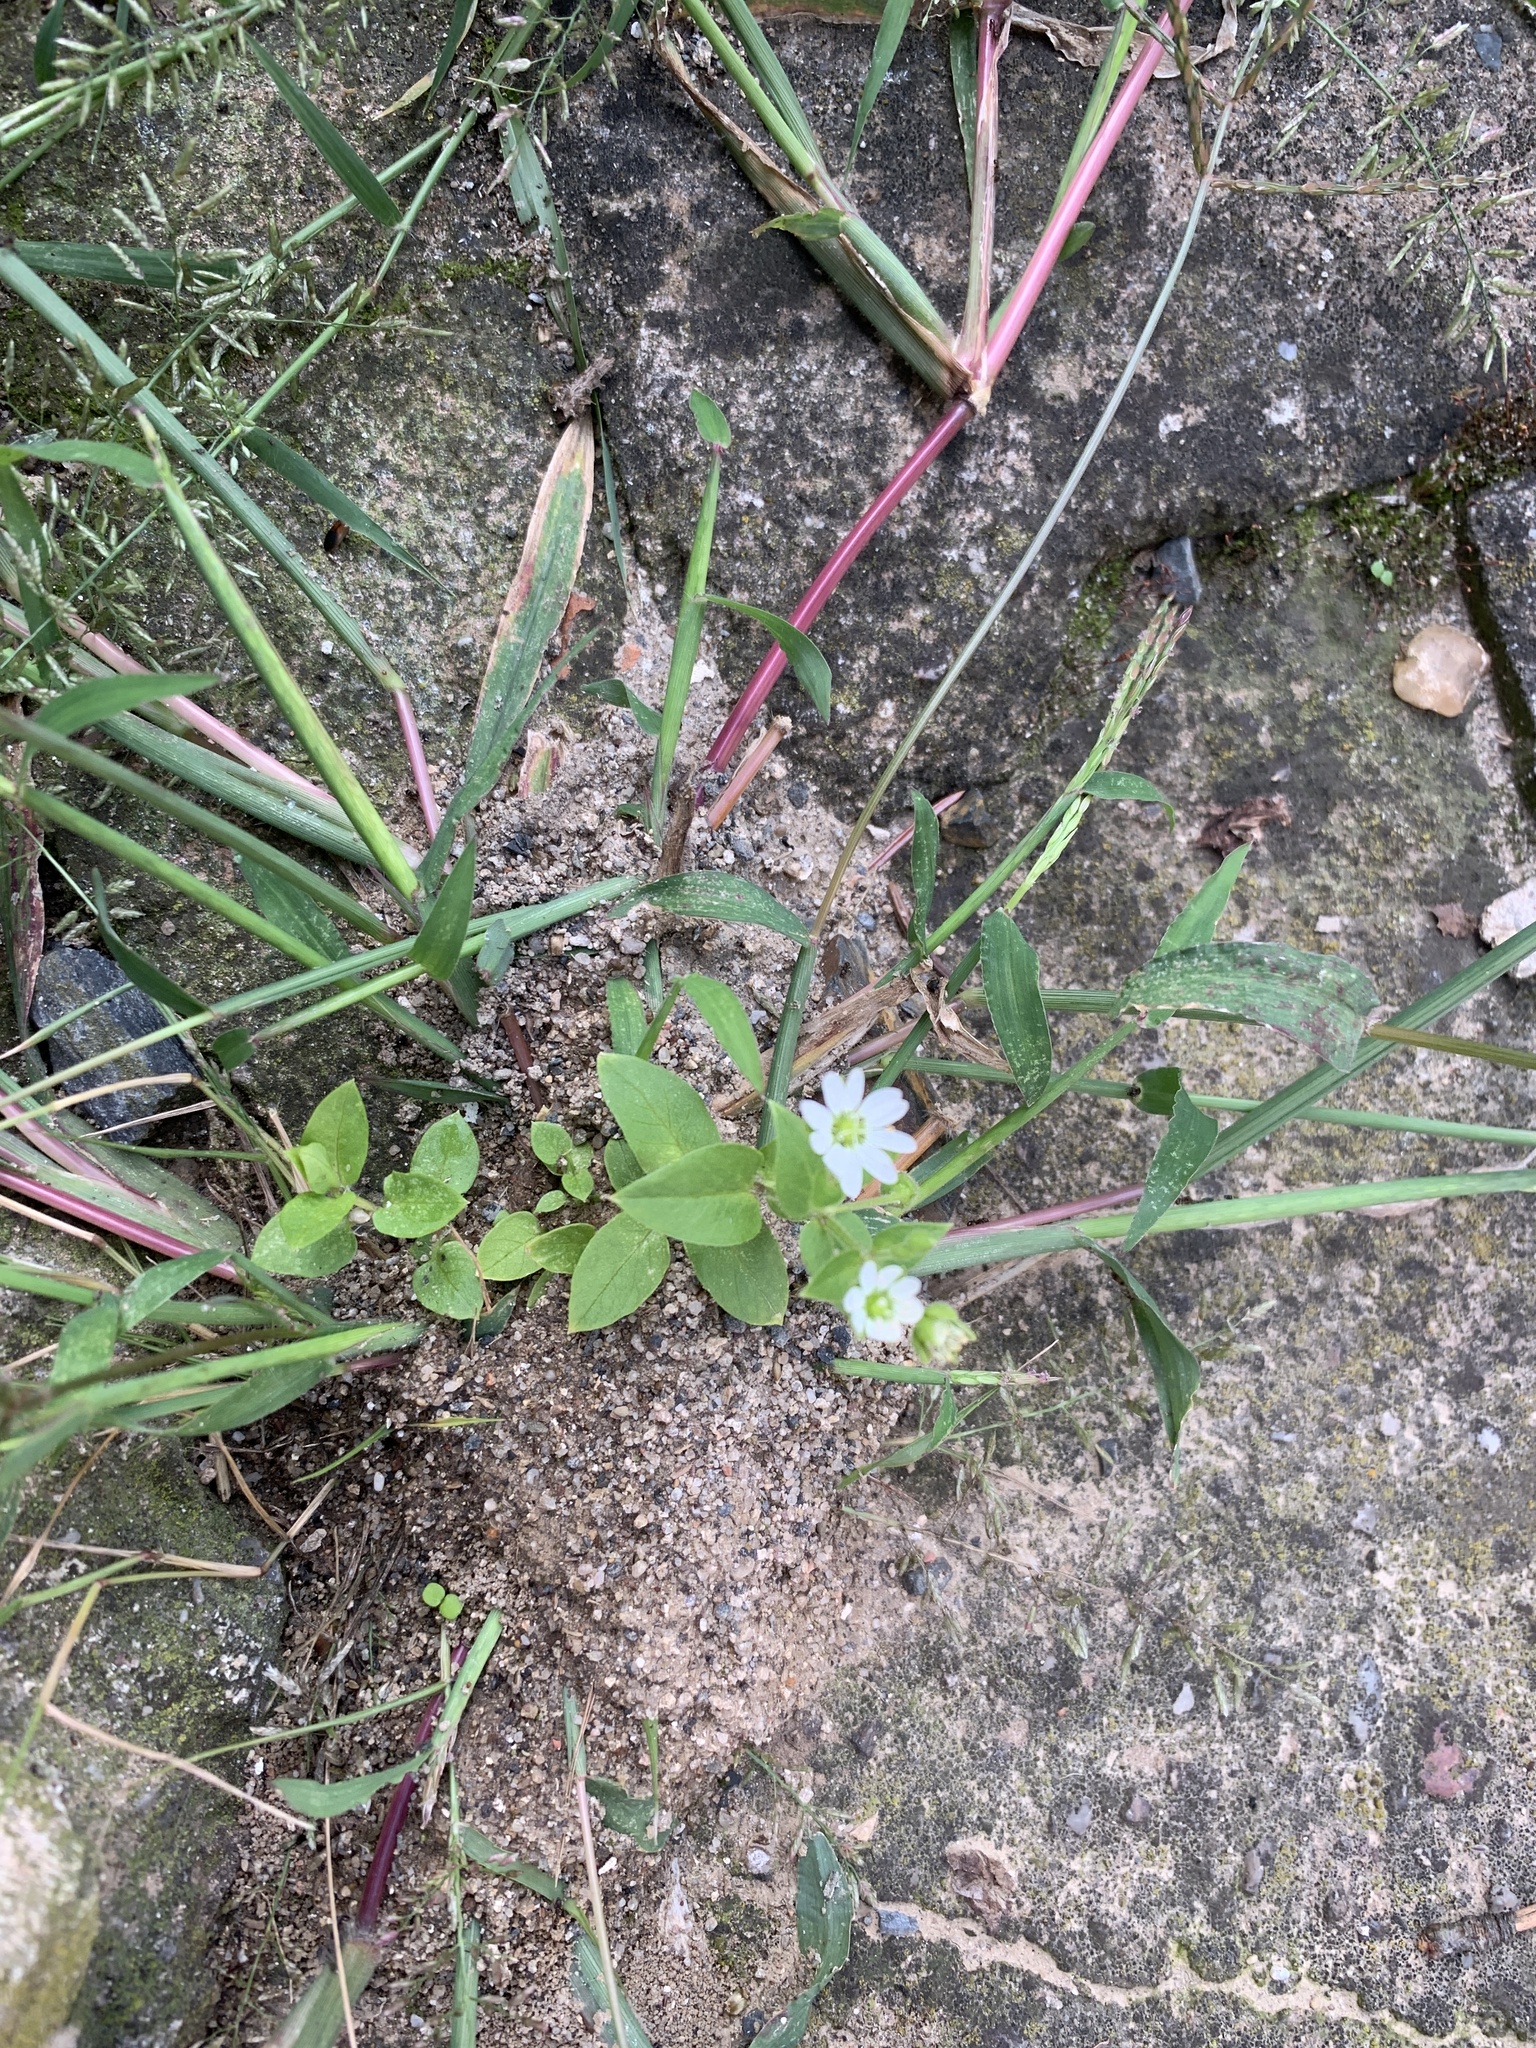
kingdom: Plantae
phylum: Tracheophyta
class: Magnoliopsida
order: Caryophyllales
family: Caryophyllaceae
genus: Stellaria
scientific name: Stellaria aquatica
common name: Water chickweed
